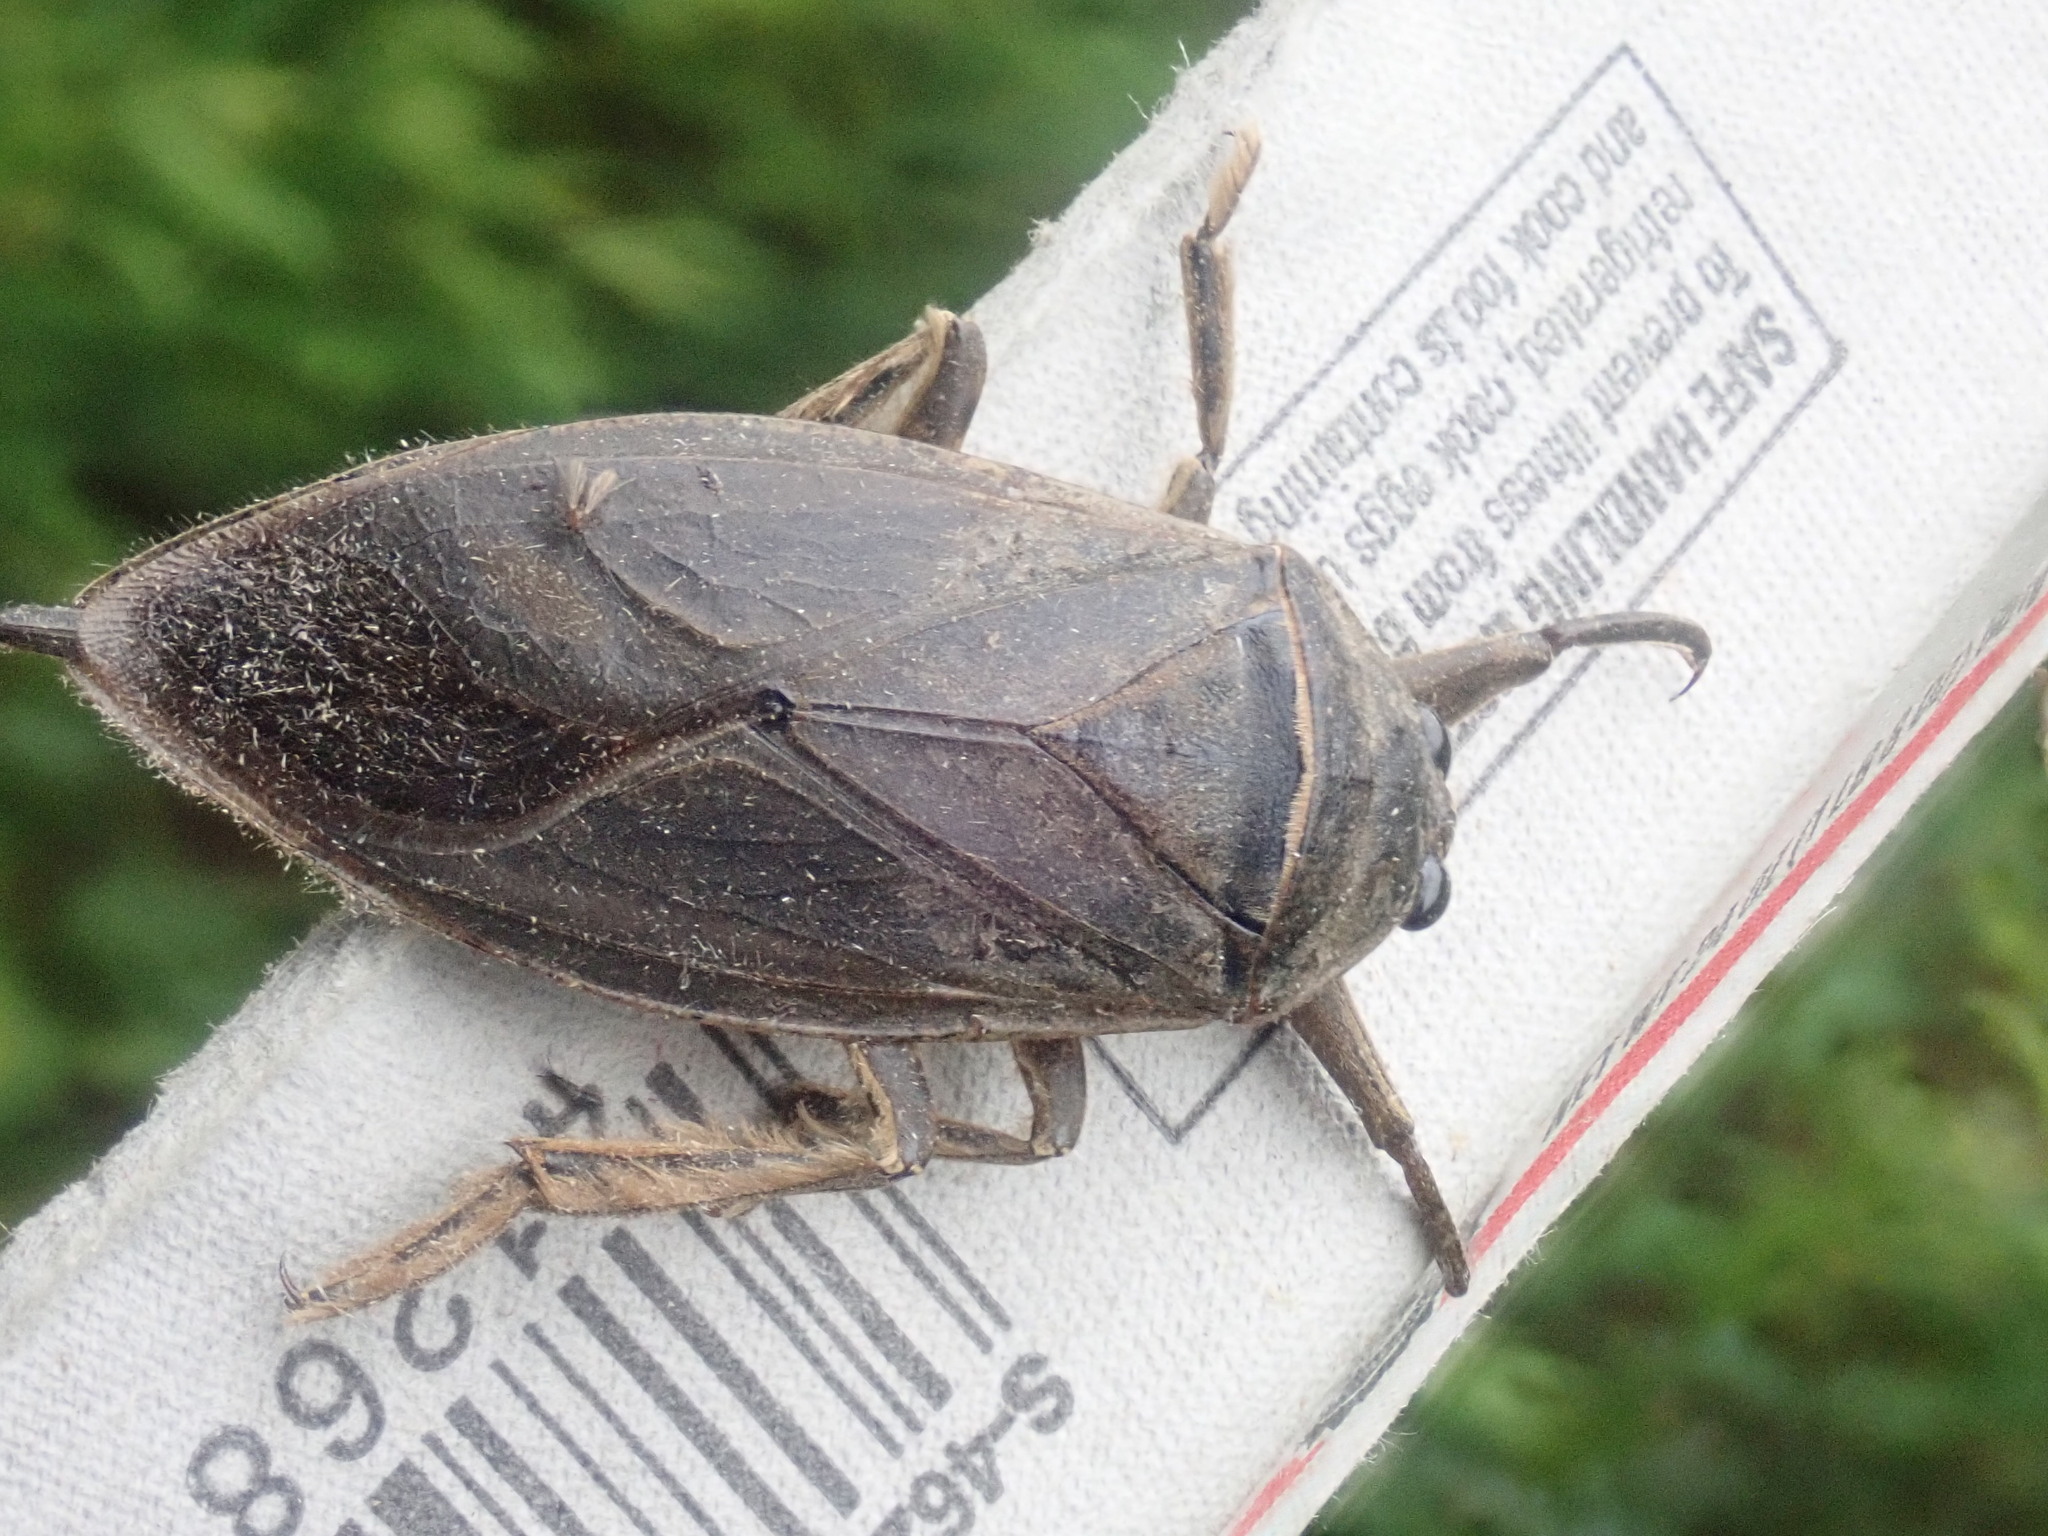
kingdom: Animalia
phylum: Arthropoda
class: Insecta
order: Hemiptera
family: Belostomatidae
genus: Lethocerus
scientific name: Lethocerus americanus
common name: Giant water bug
